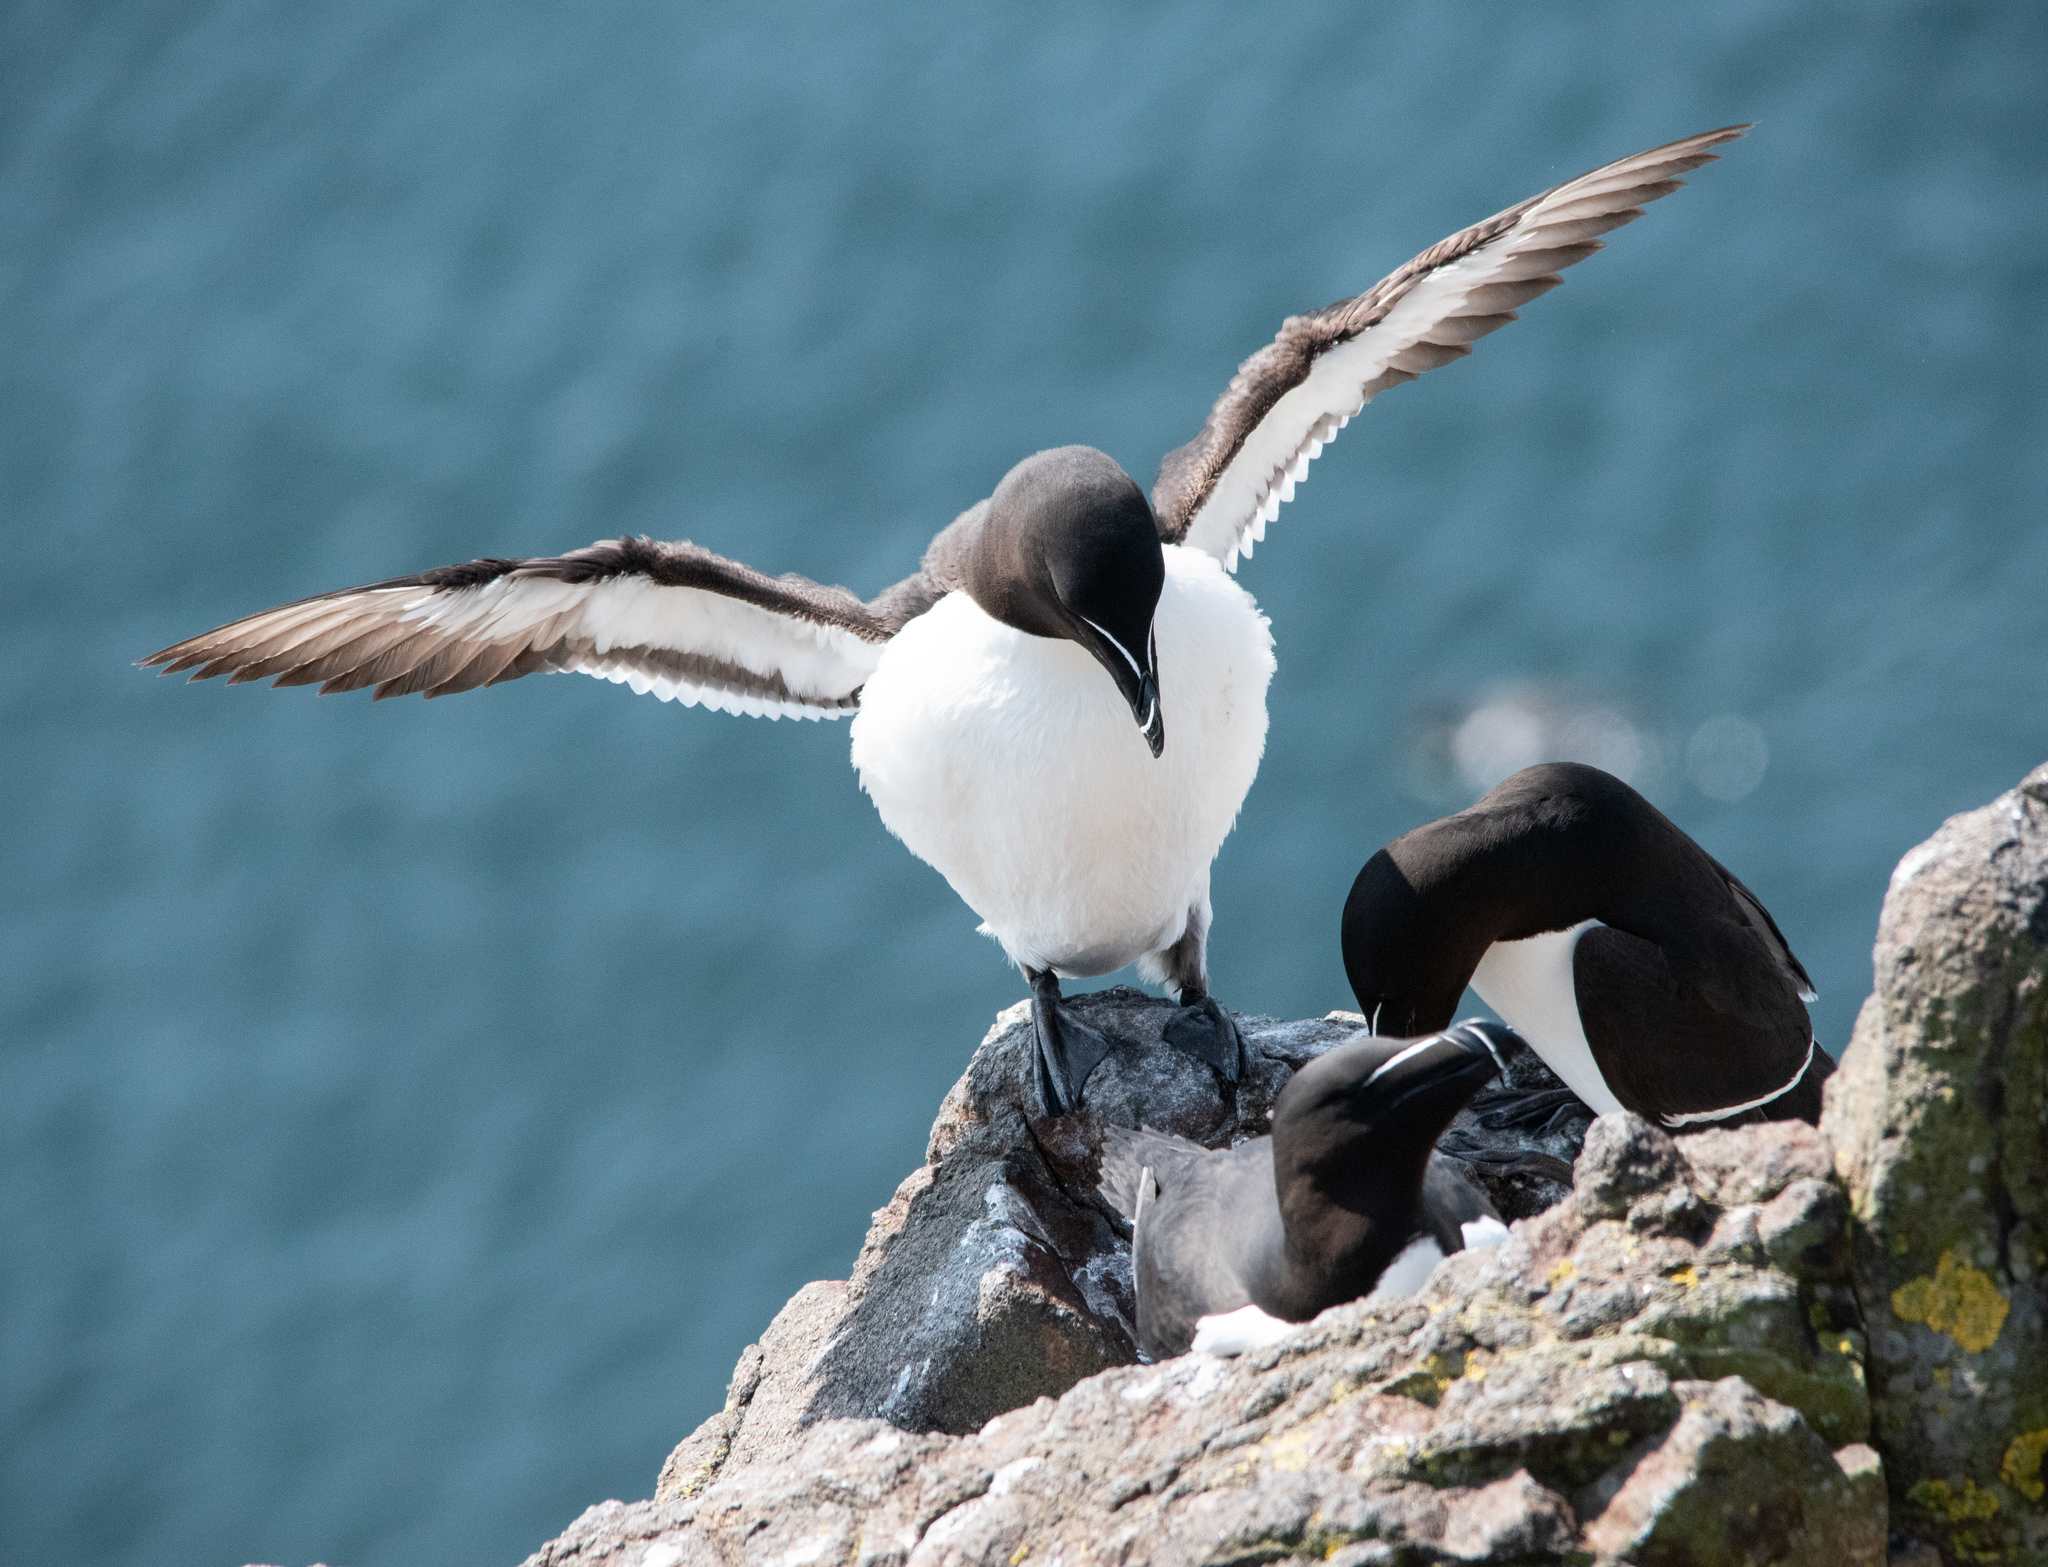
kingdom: Animalia
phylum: Chordata
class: Aves
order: Charadriiformes
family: Alcidae
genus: Alca
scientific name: Alca torda
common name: Razorbill
